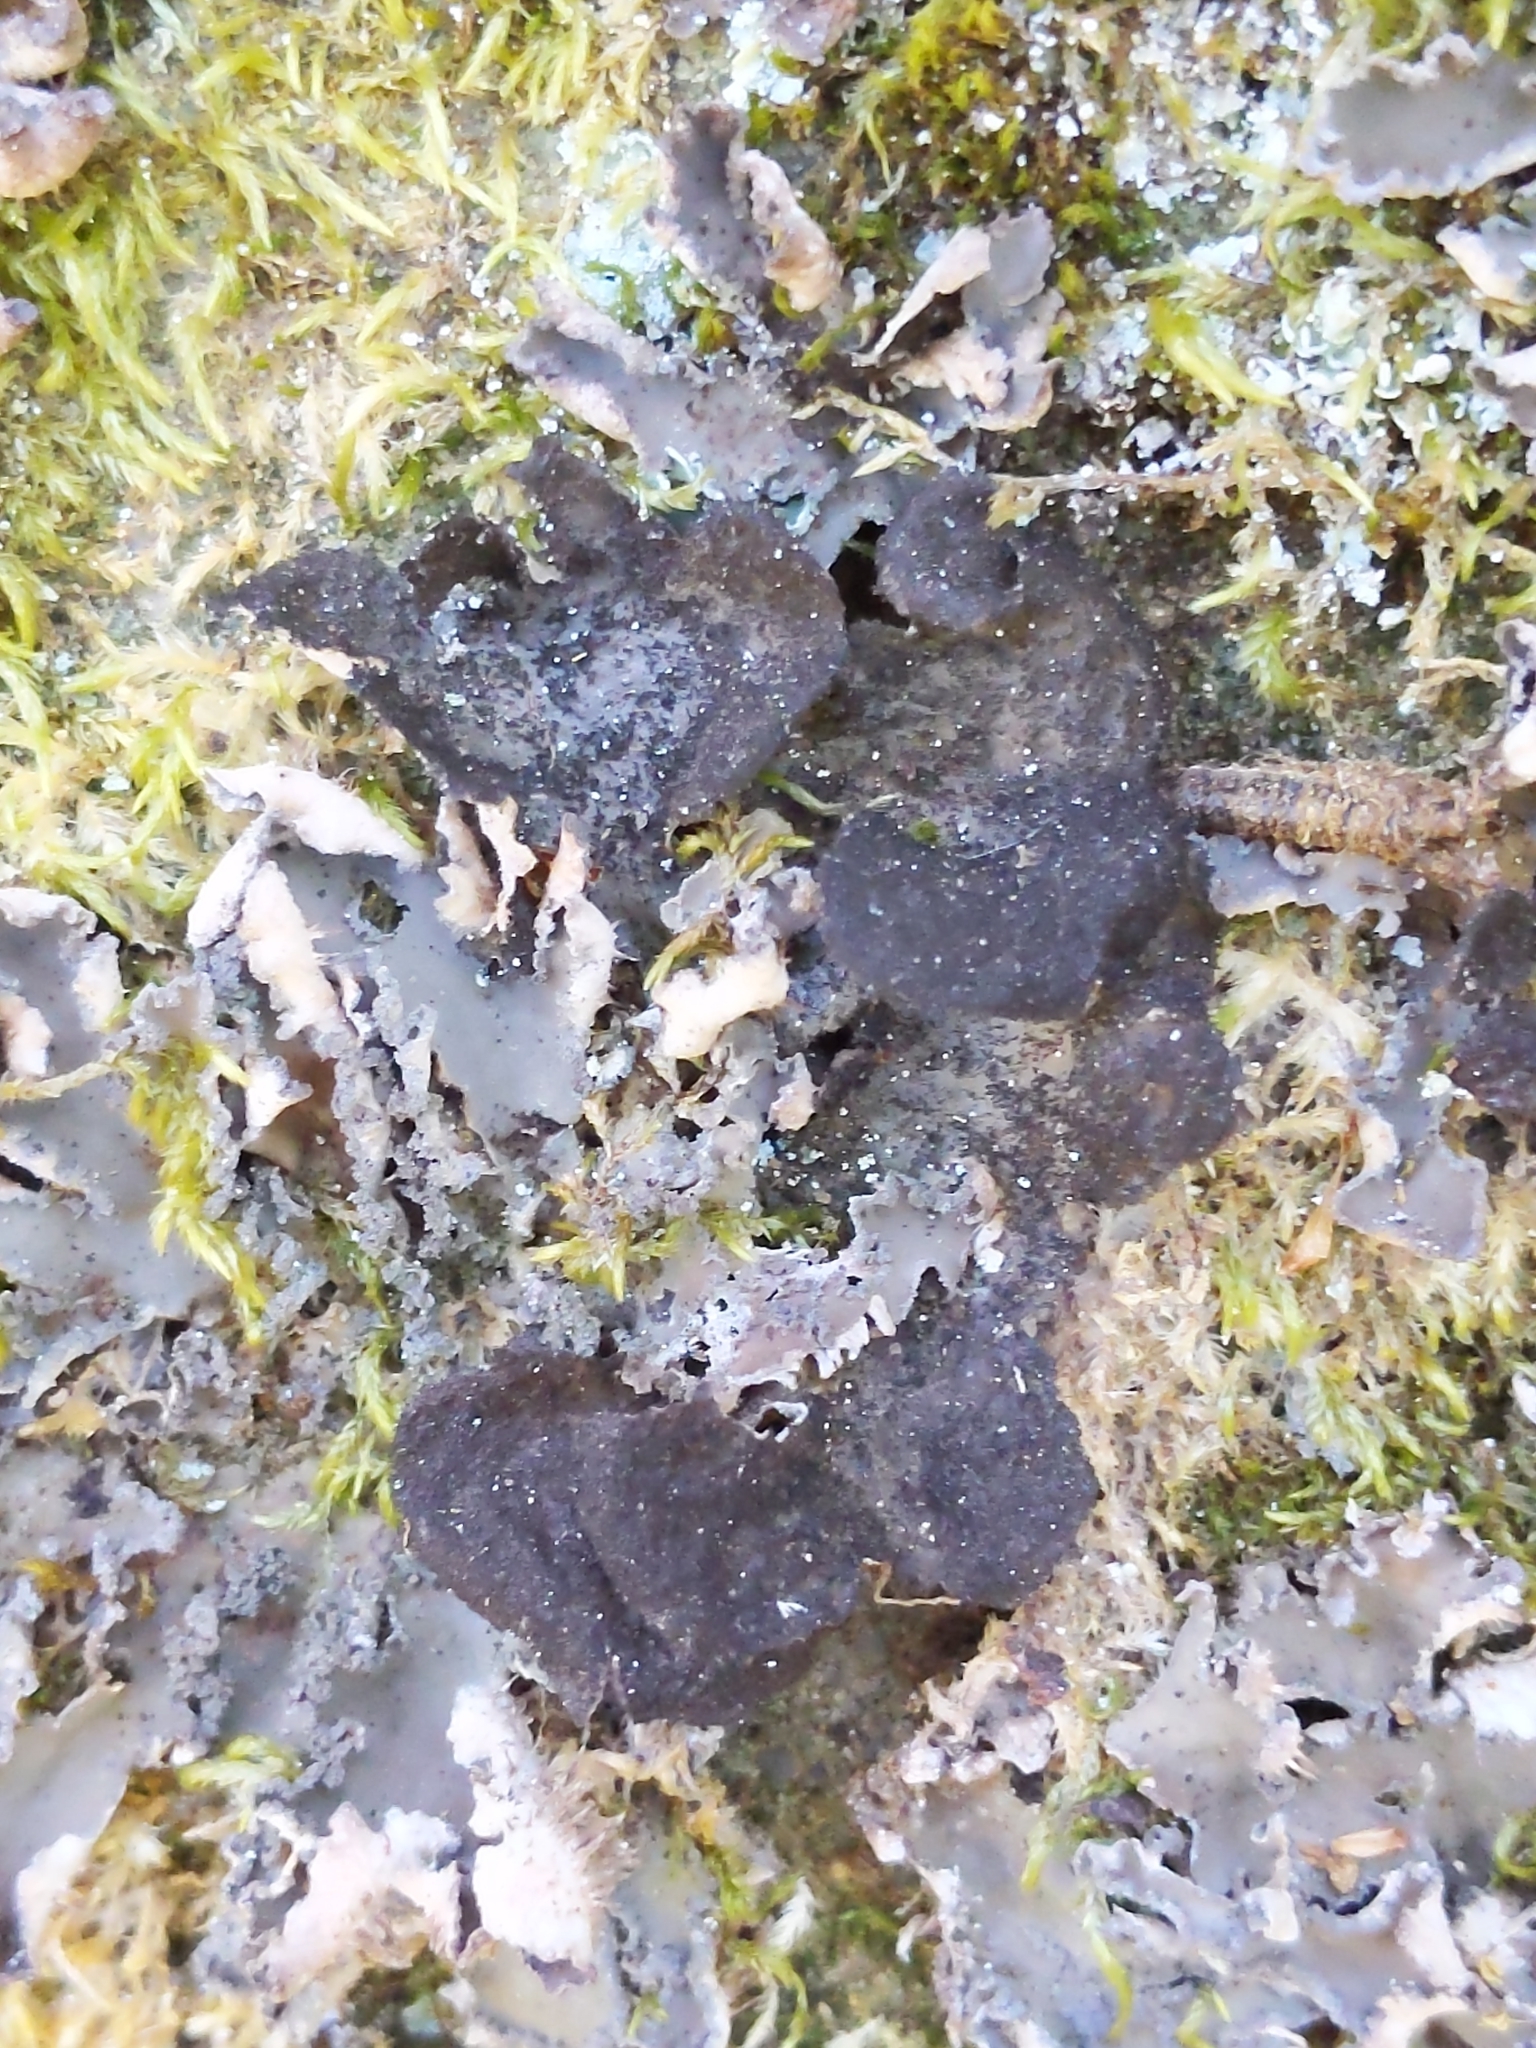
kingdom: Fungi
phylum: Ascomycota
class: Lecanoromycetes
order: Peltigerales
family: Lobariaceae
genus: Sticta
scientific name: Sticta
